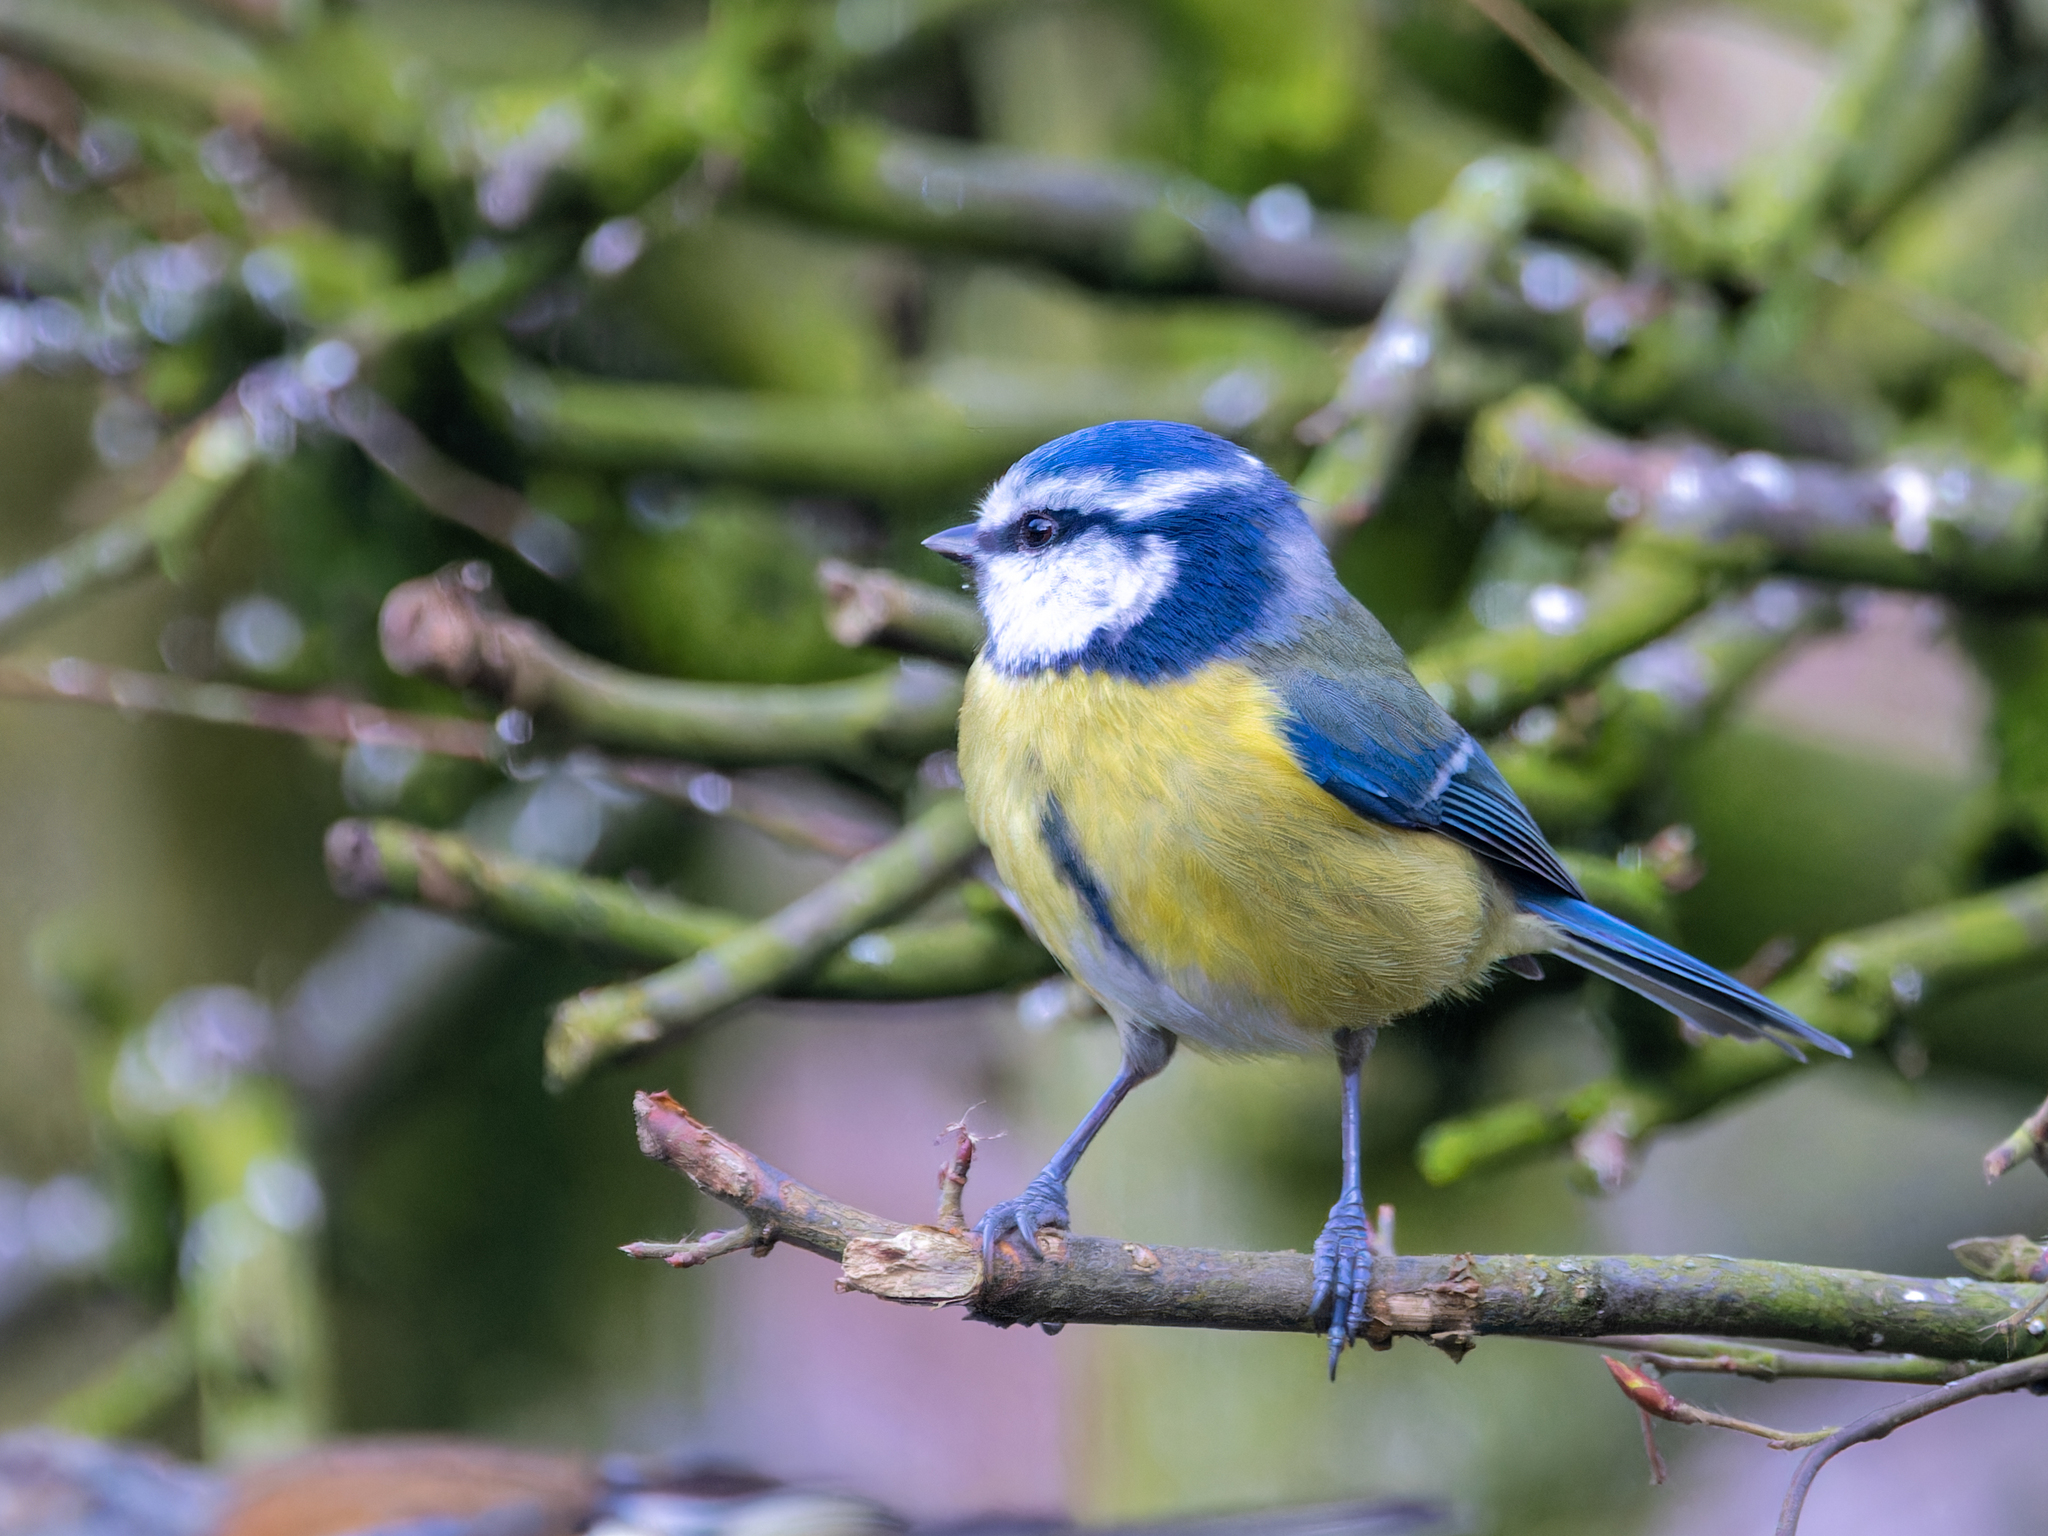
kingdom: Animalia
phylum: Chordata
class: Aves
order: Passeriformes
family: Paridae
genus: Cyanistes
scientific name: Cyanistes caeruleus
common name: Eurasian blue tit
